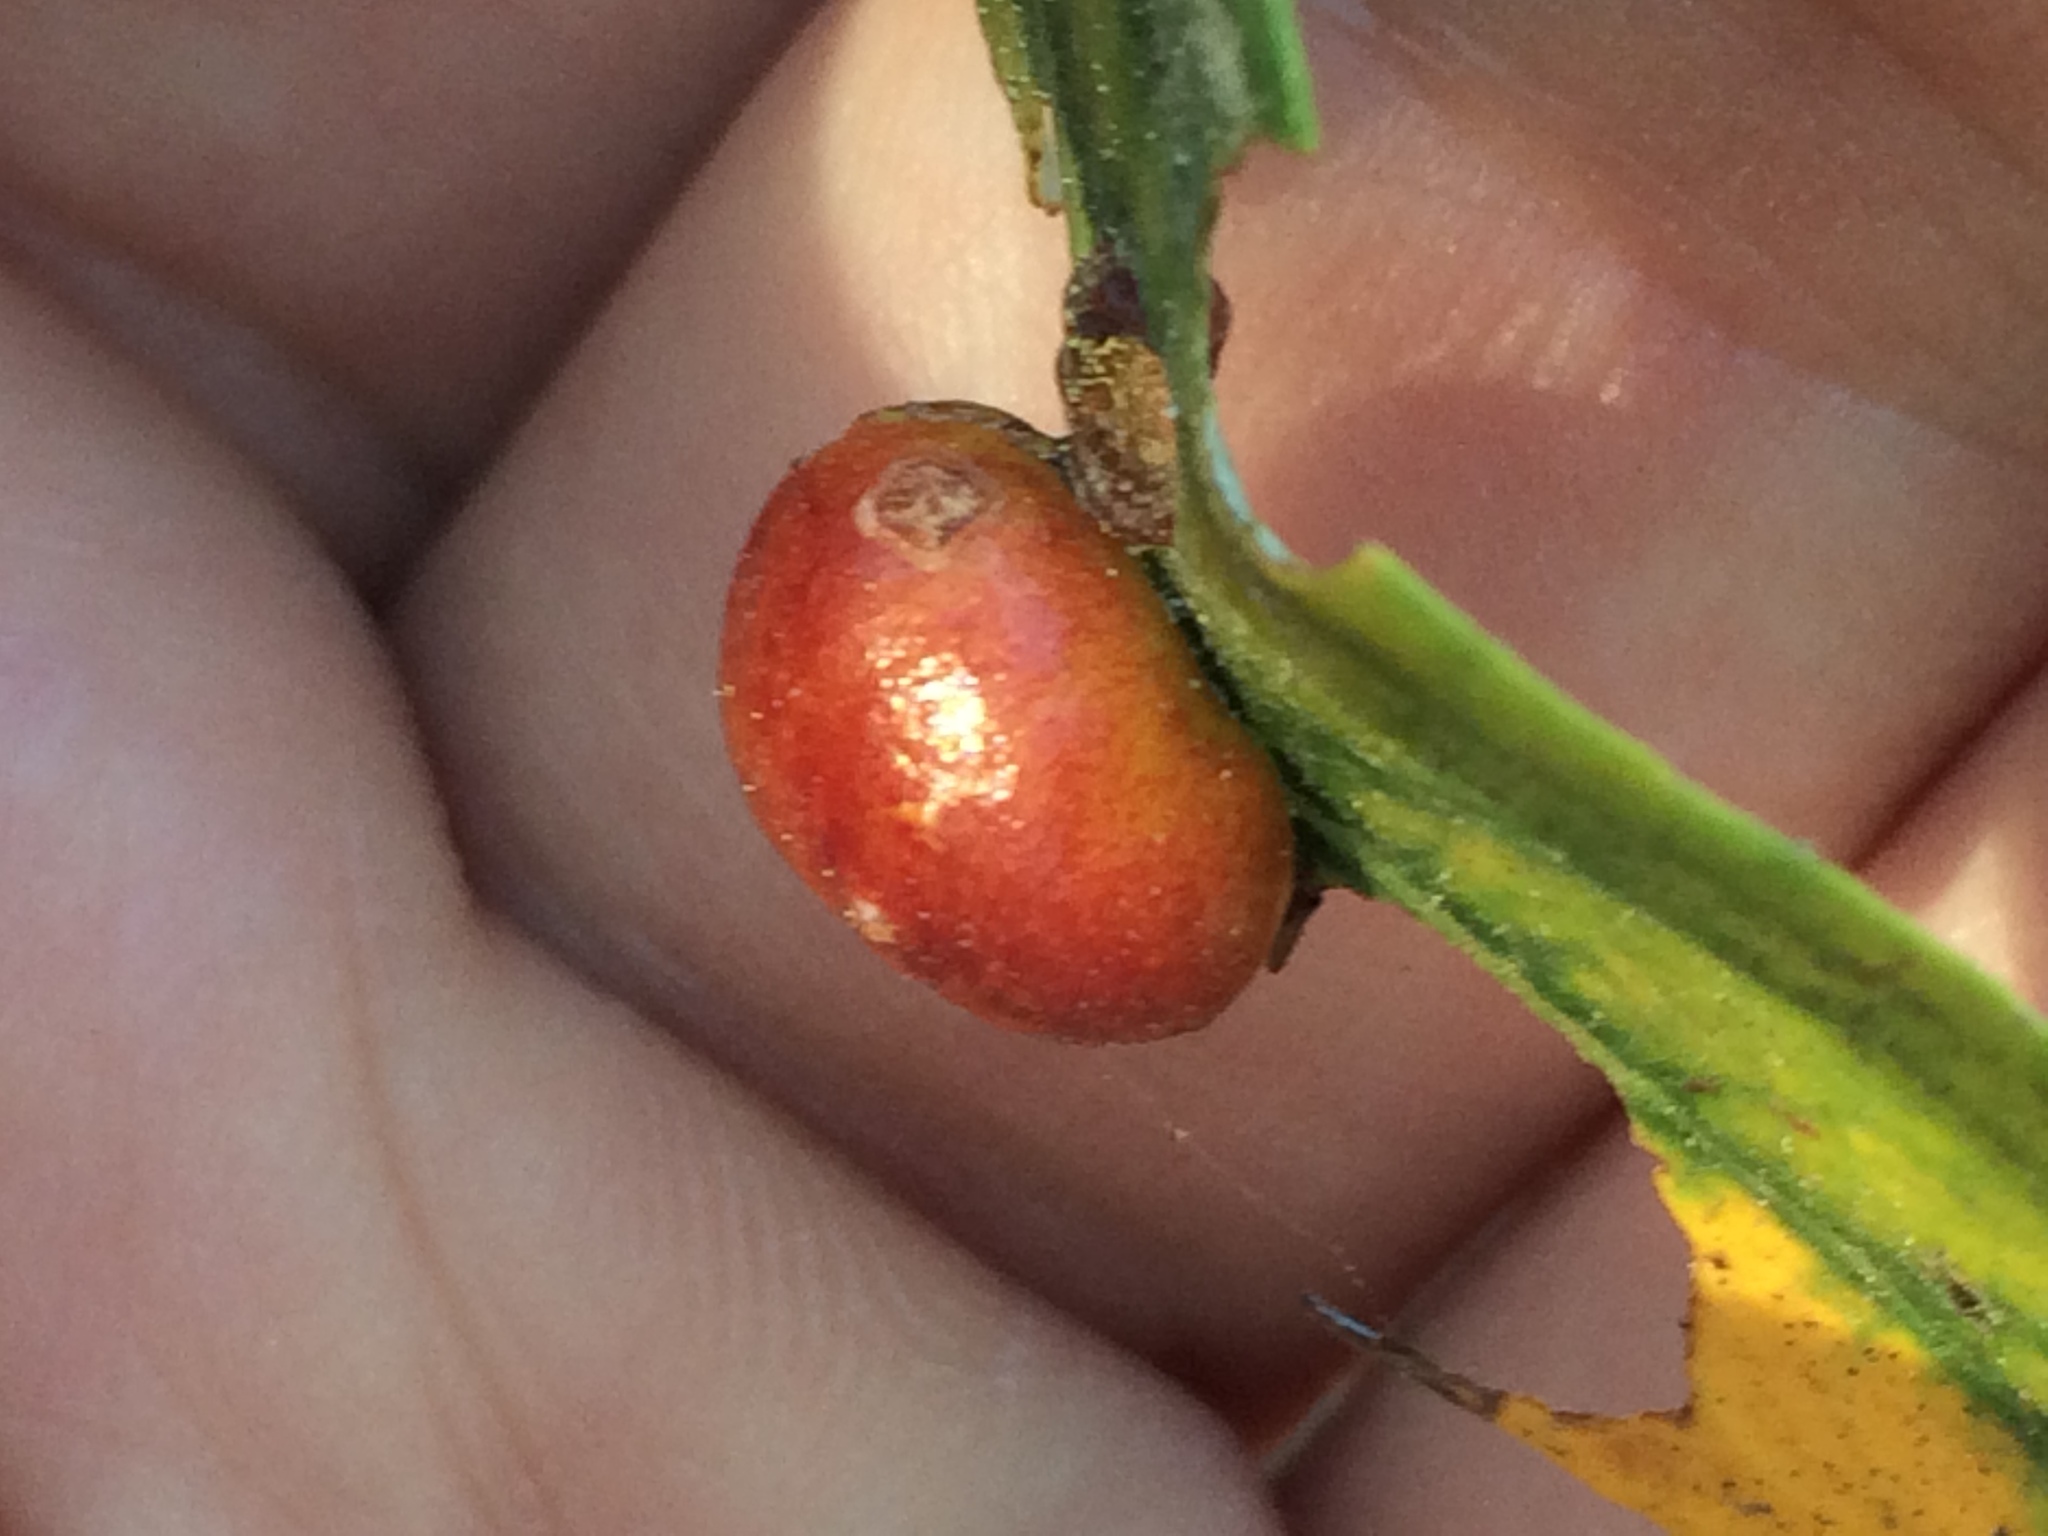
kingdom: Animalia
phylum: Arthropoda
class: Insecta
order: Hymenoptera
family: Tenthredinidae
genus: Euura
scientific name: Euura
